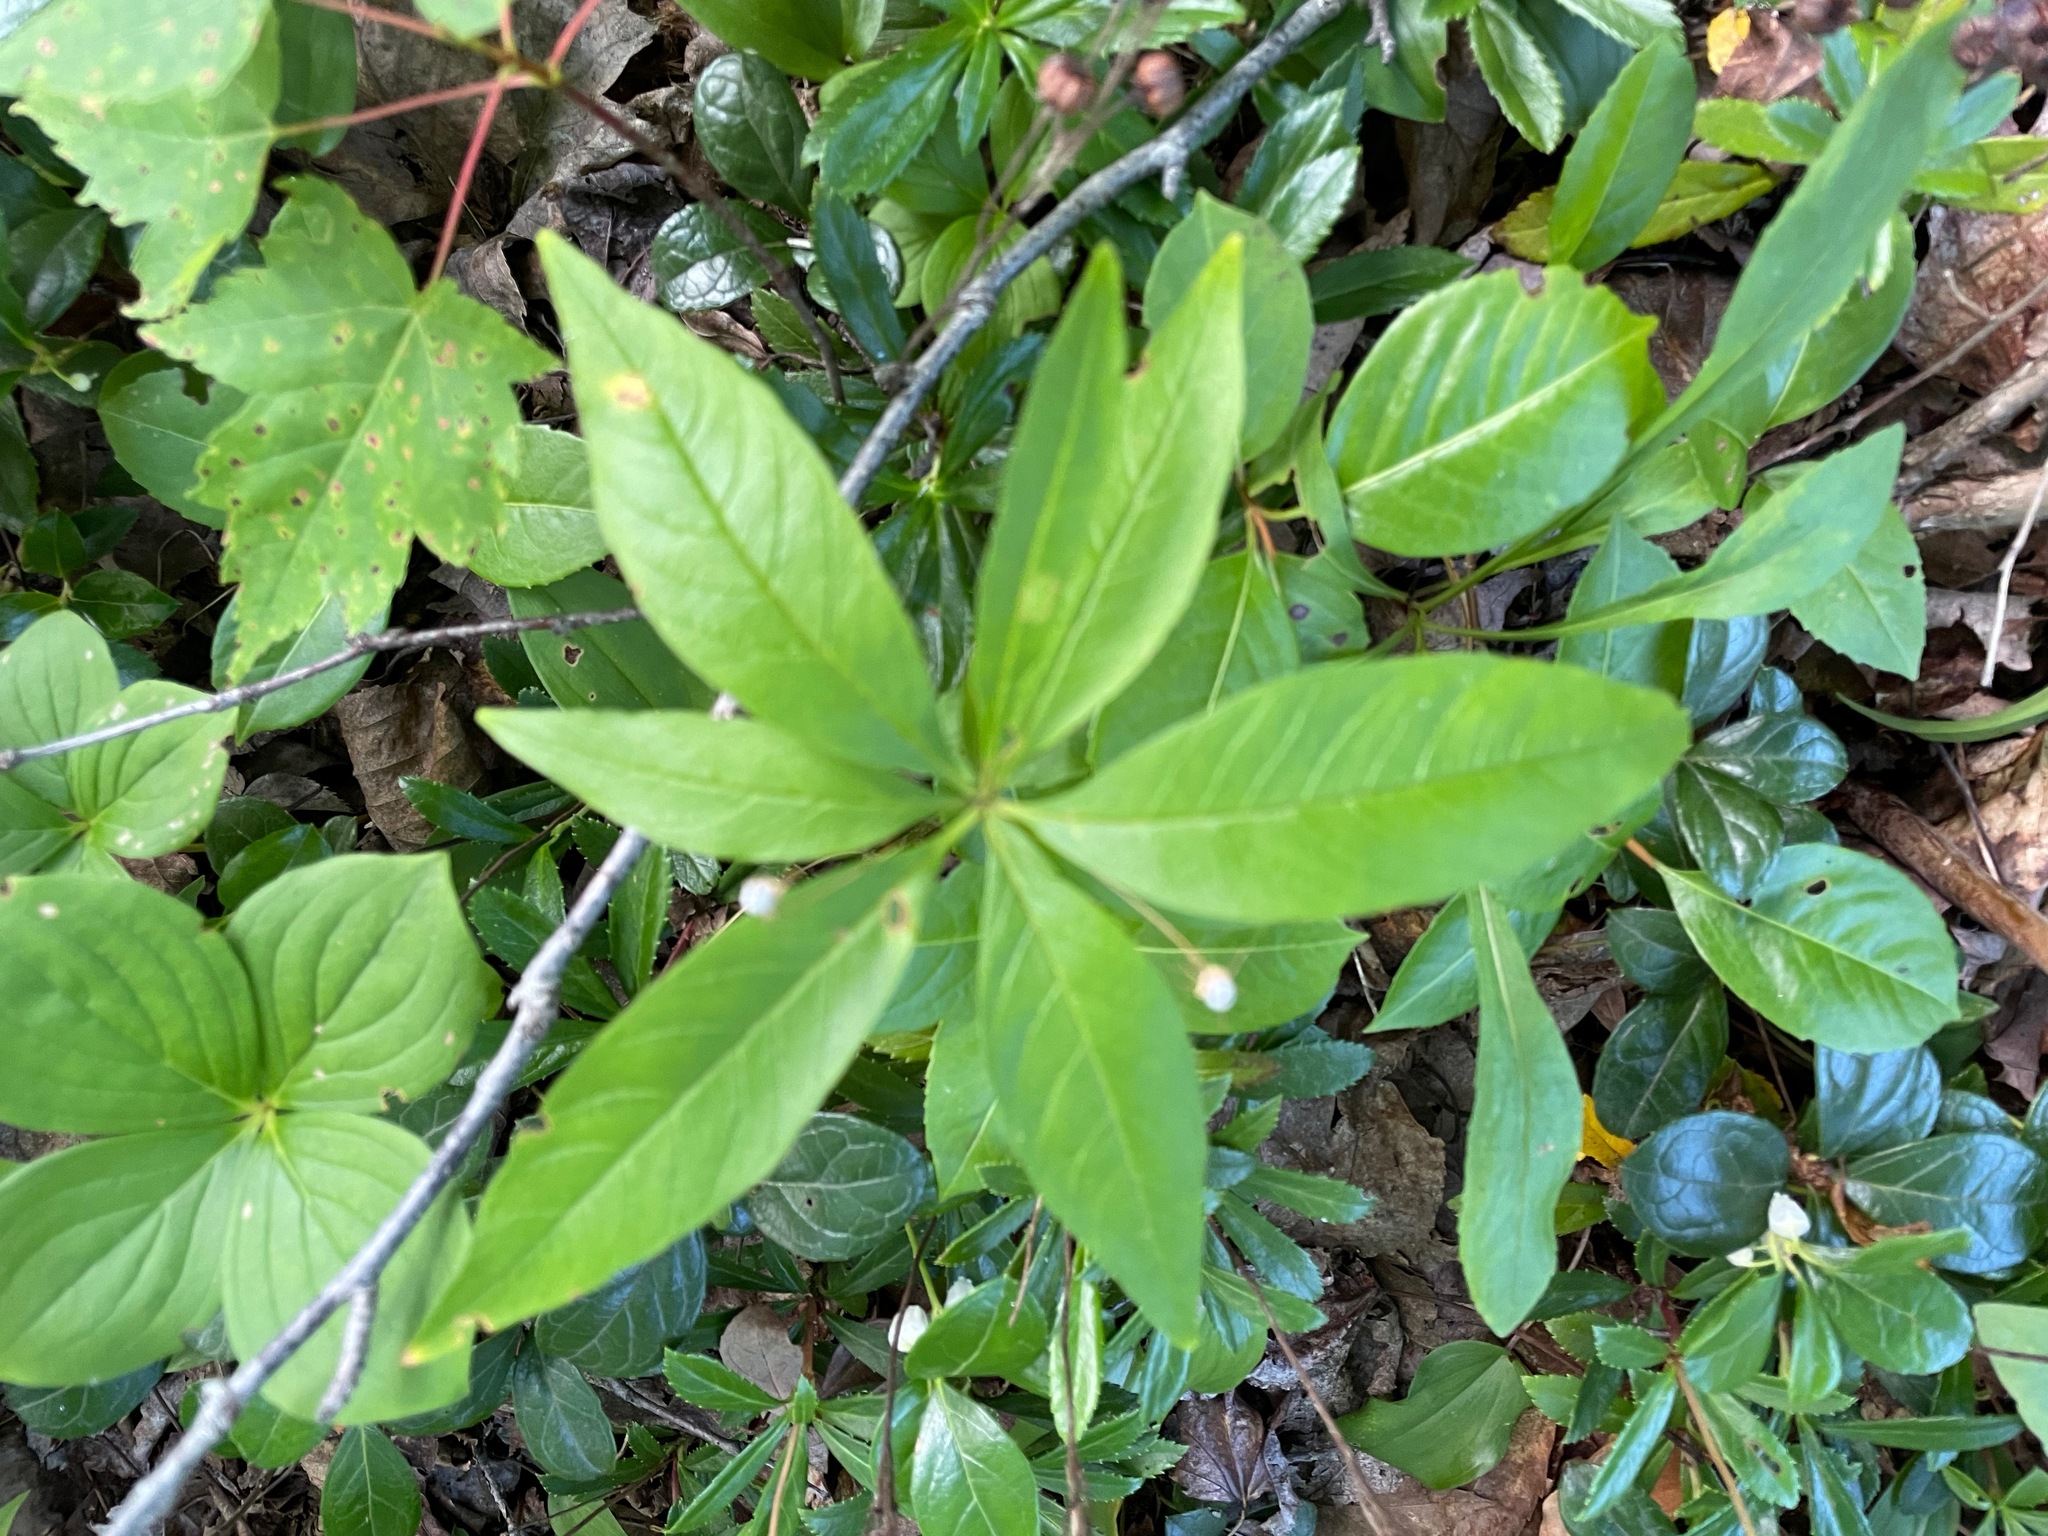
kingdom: Plantae
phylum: Tracheophyta
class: Magnoliopsida
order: Ericales
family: Primulaceae
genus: Lysimachia
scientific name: Lysimachia borealis
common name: American starflower
